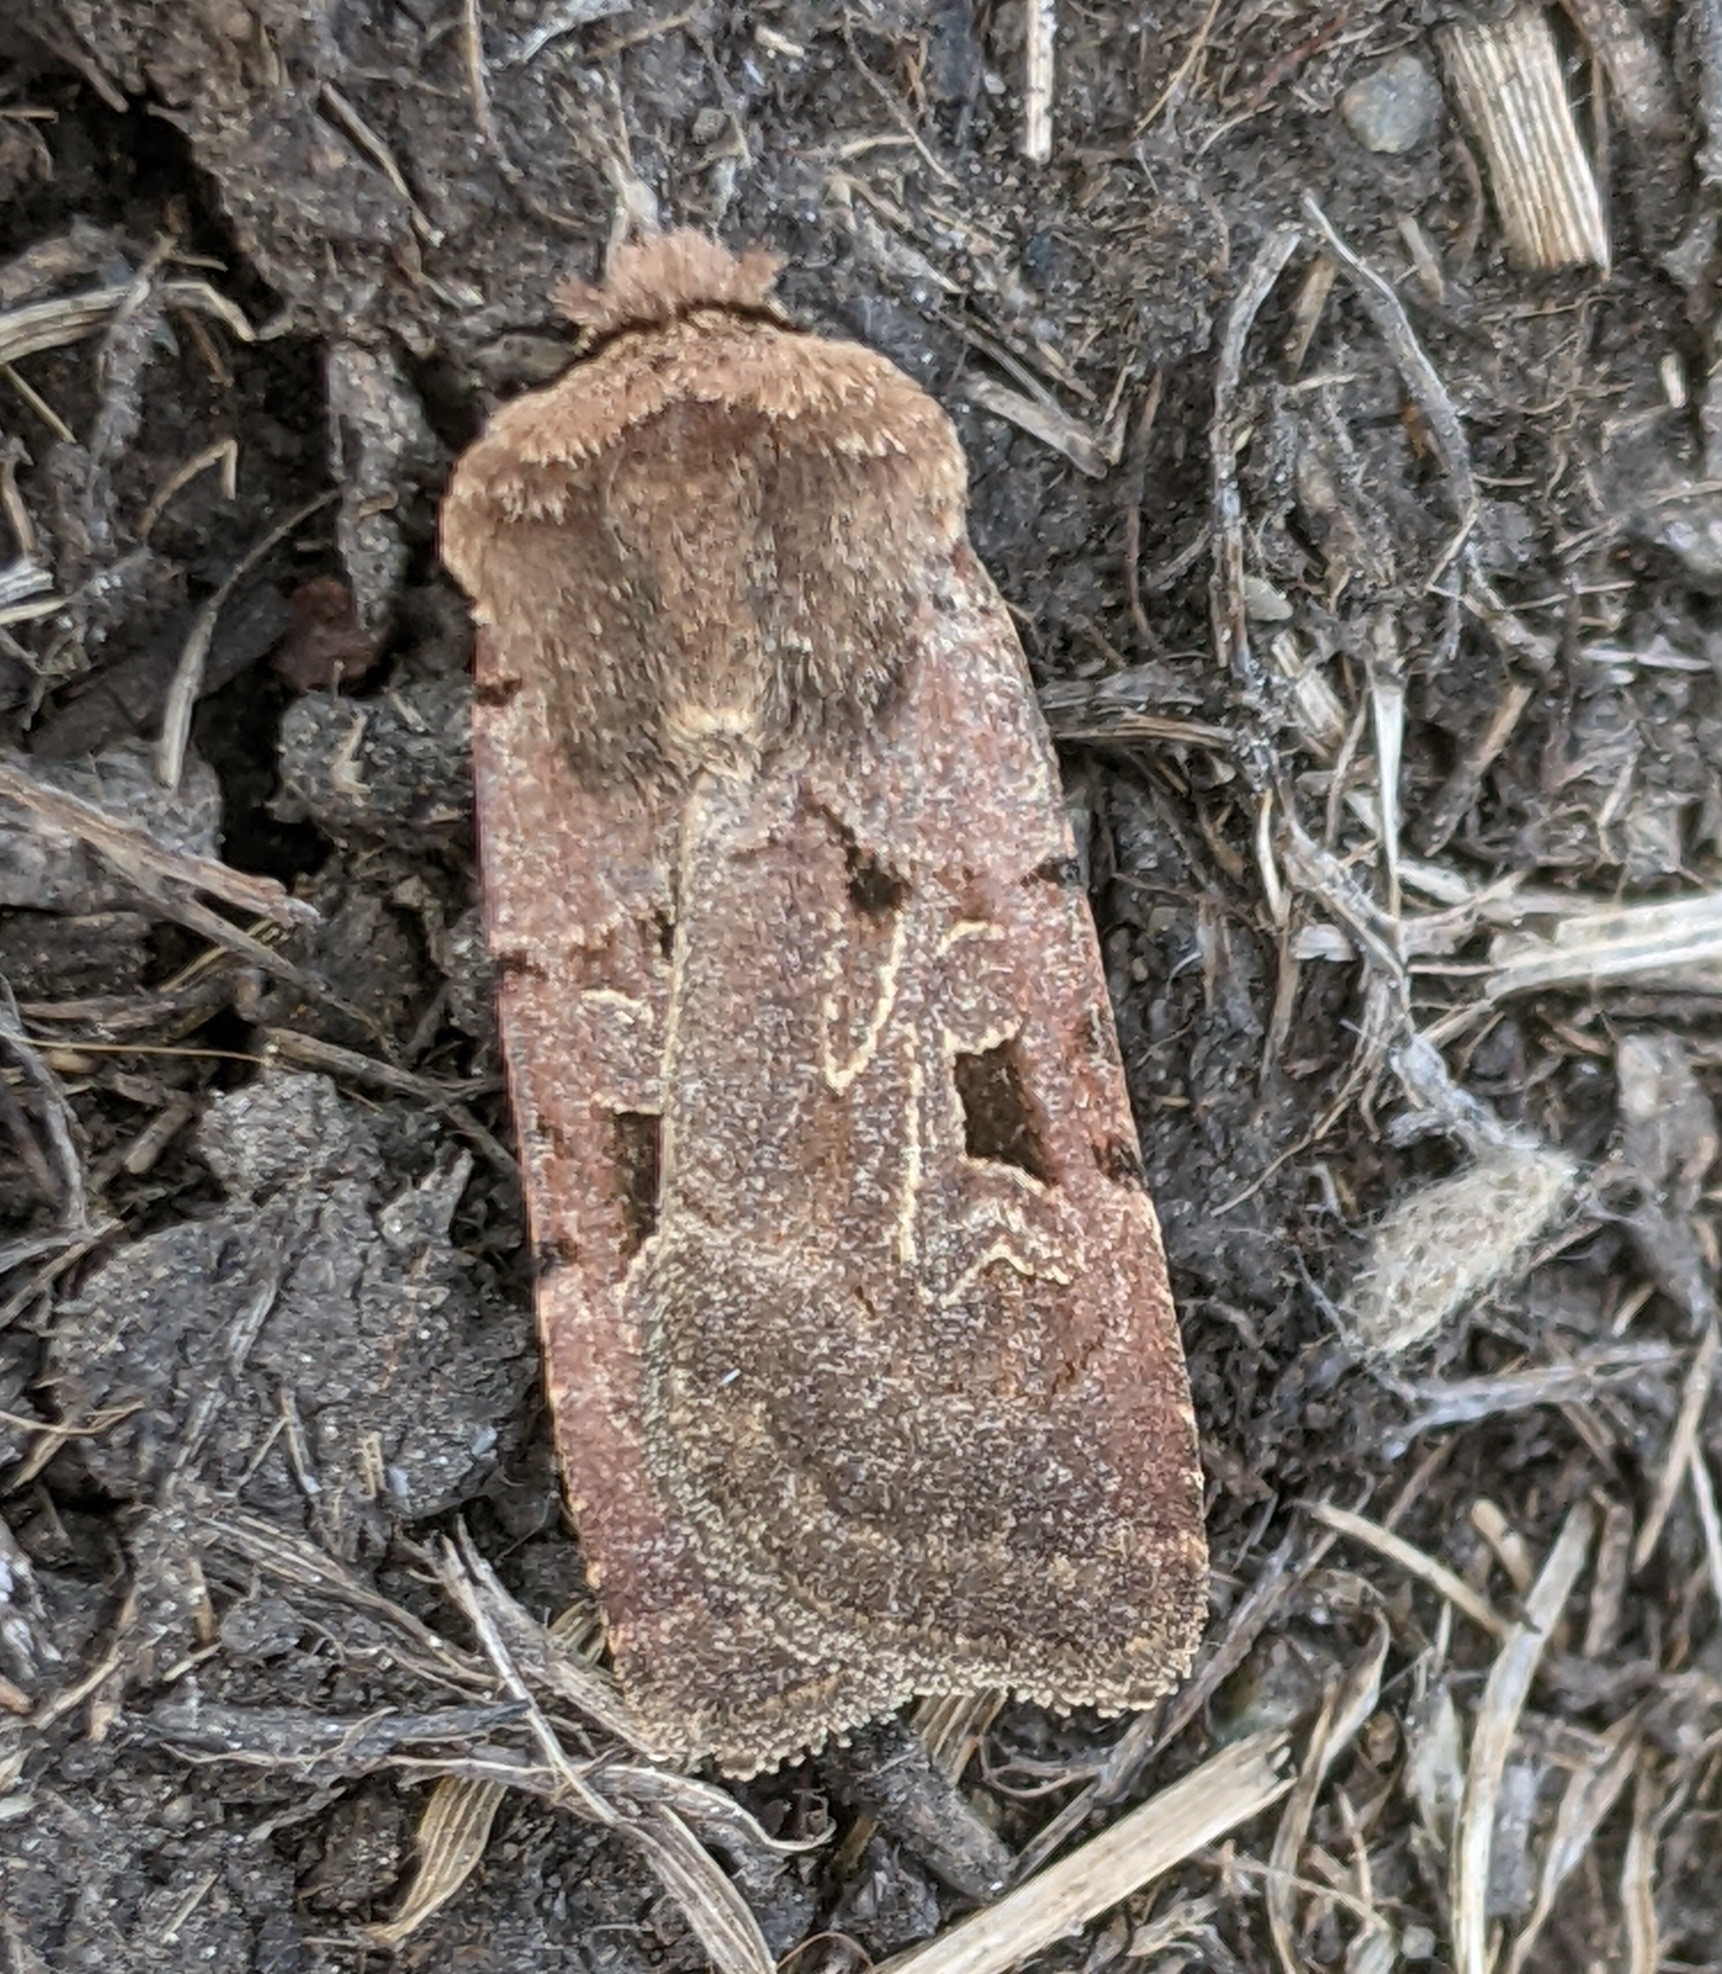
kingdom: Animalia
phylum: Arthropoda
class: Insecta
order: Lepidoptera
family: Noctuidae
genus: Chersotis
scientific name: Chersotis juncta
